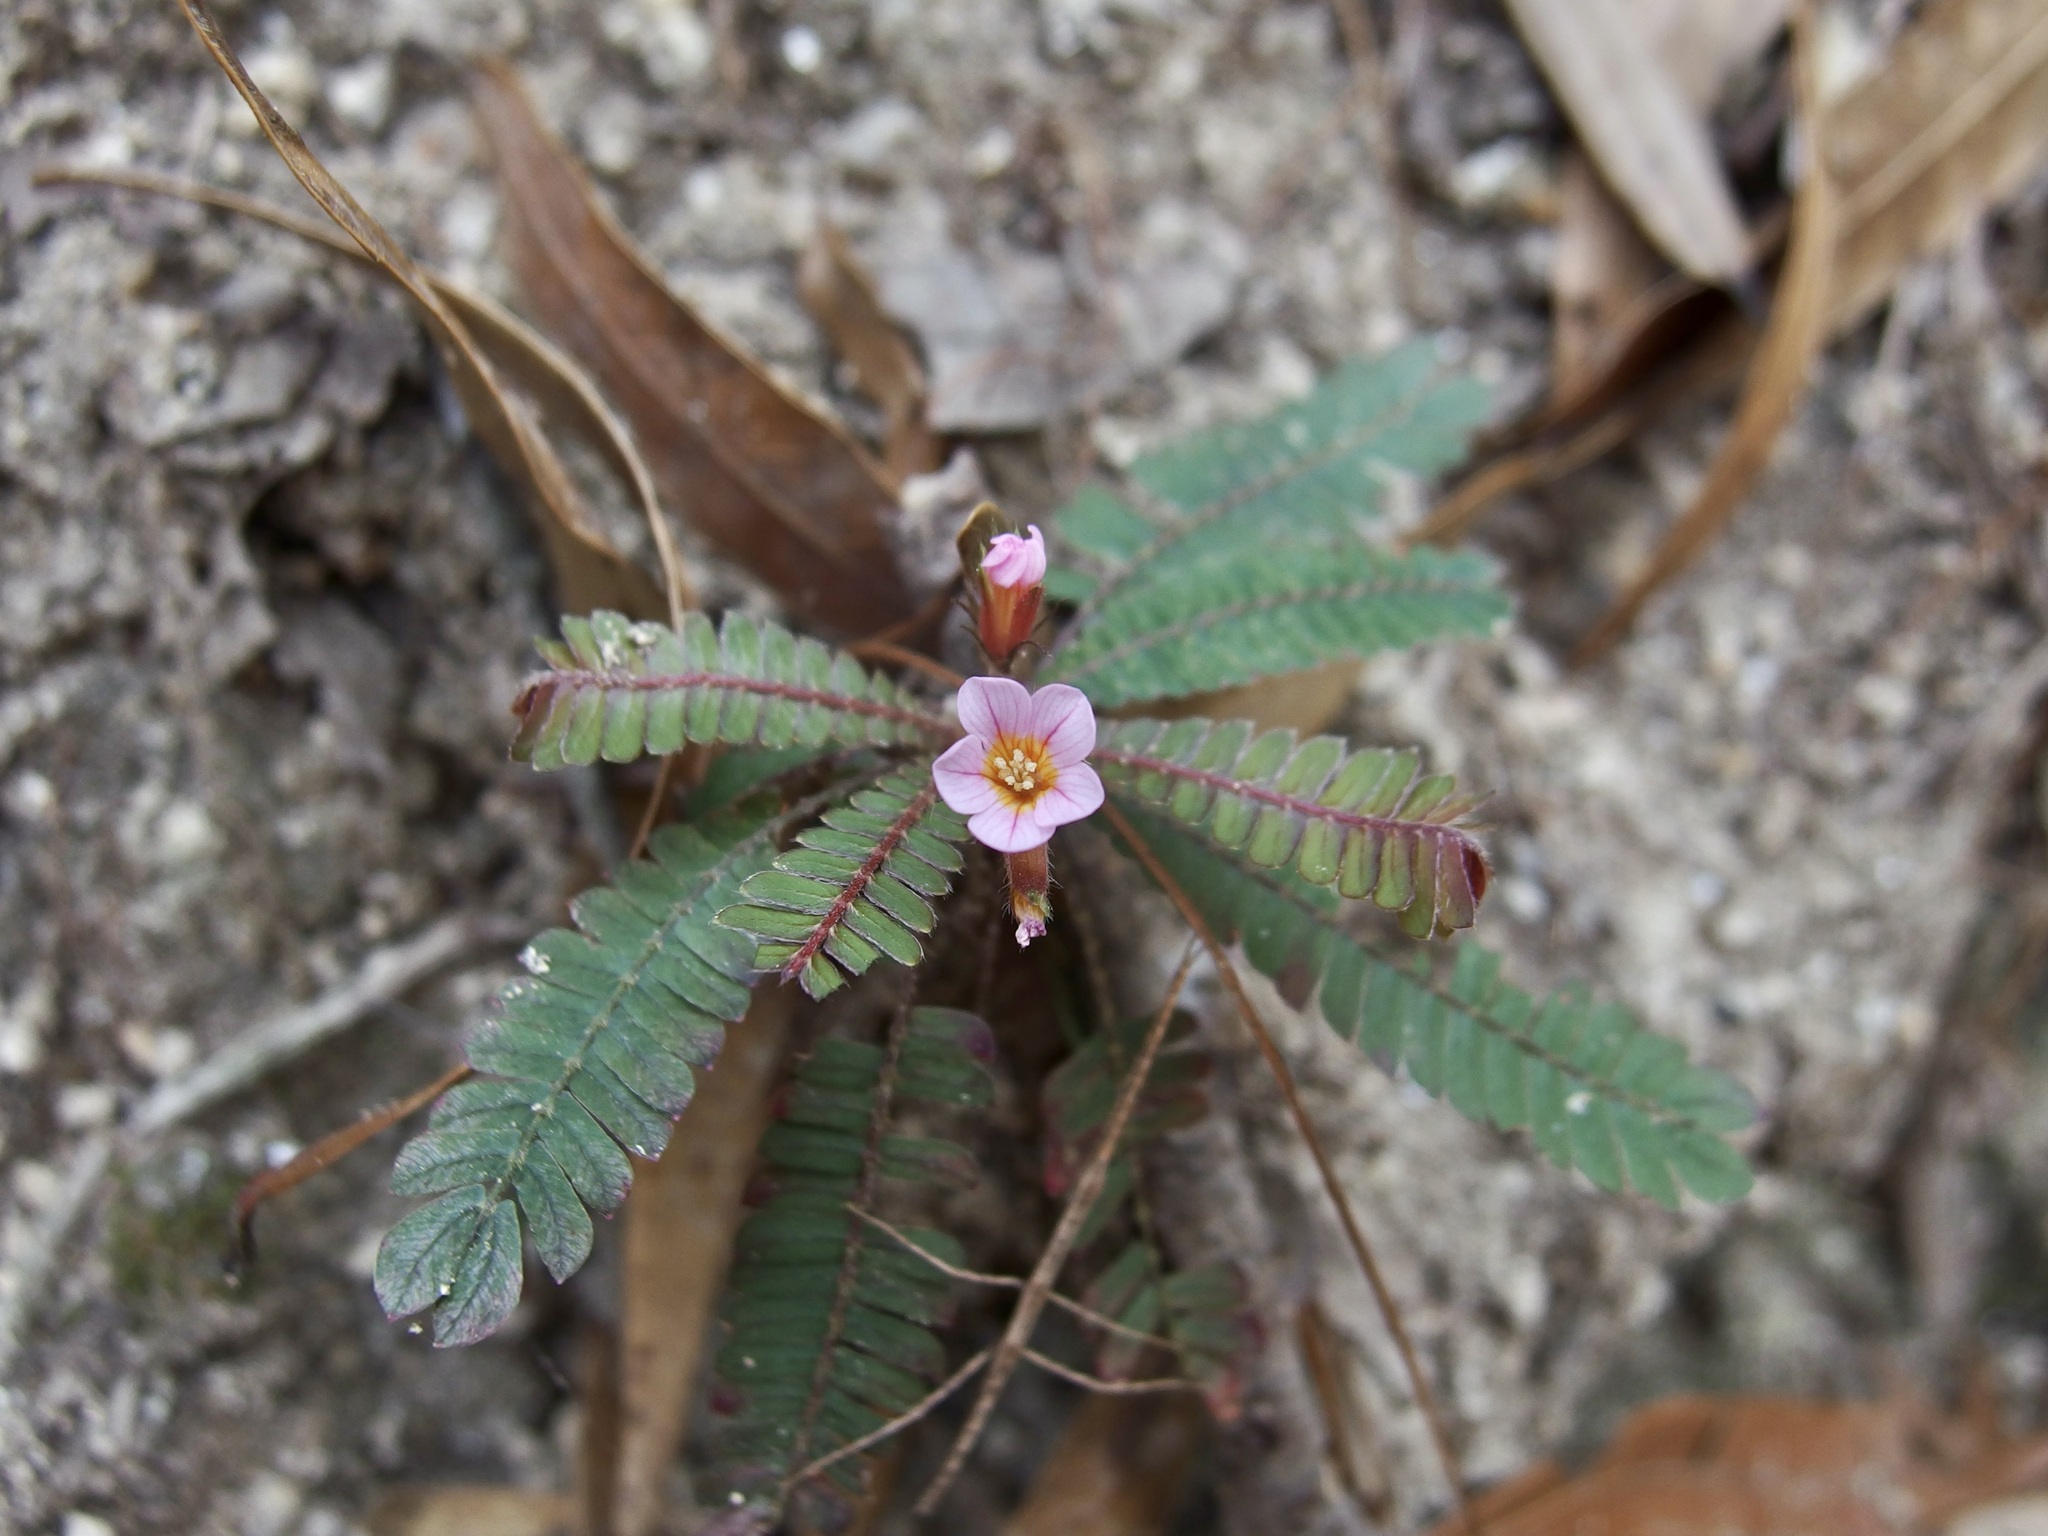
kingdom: Plantae
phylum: Tracheophyta
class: Magnoliopsida
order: Oxalidales
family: Oxalidaceae
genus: Biophytum
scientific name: Biophytum dendroides
